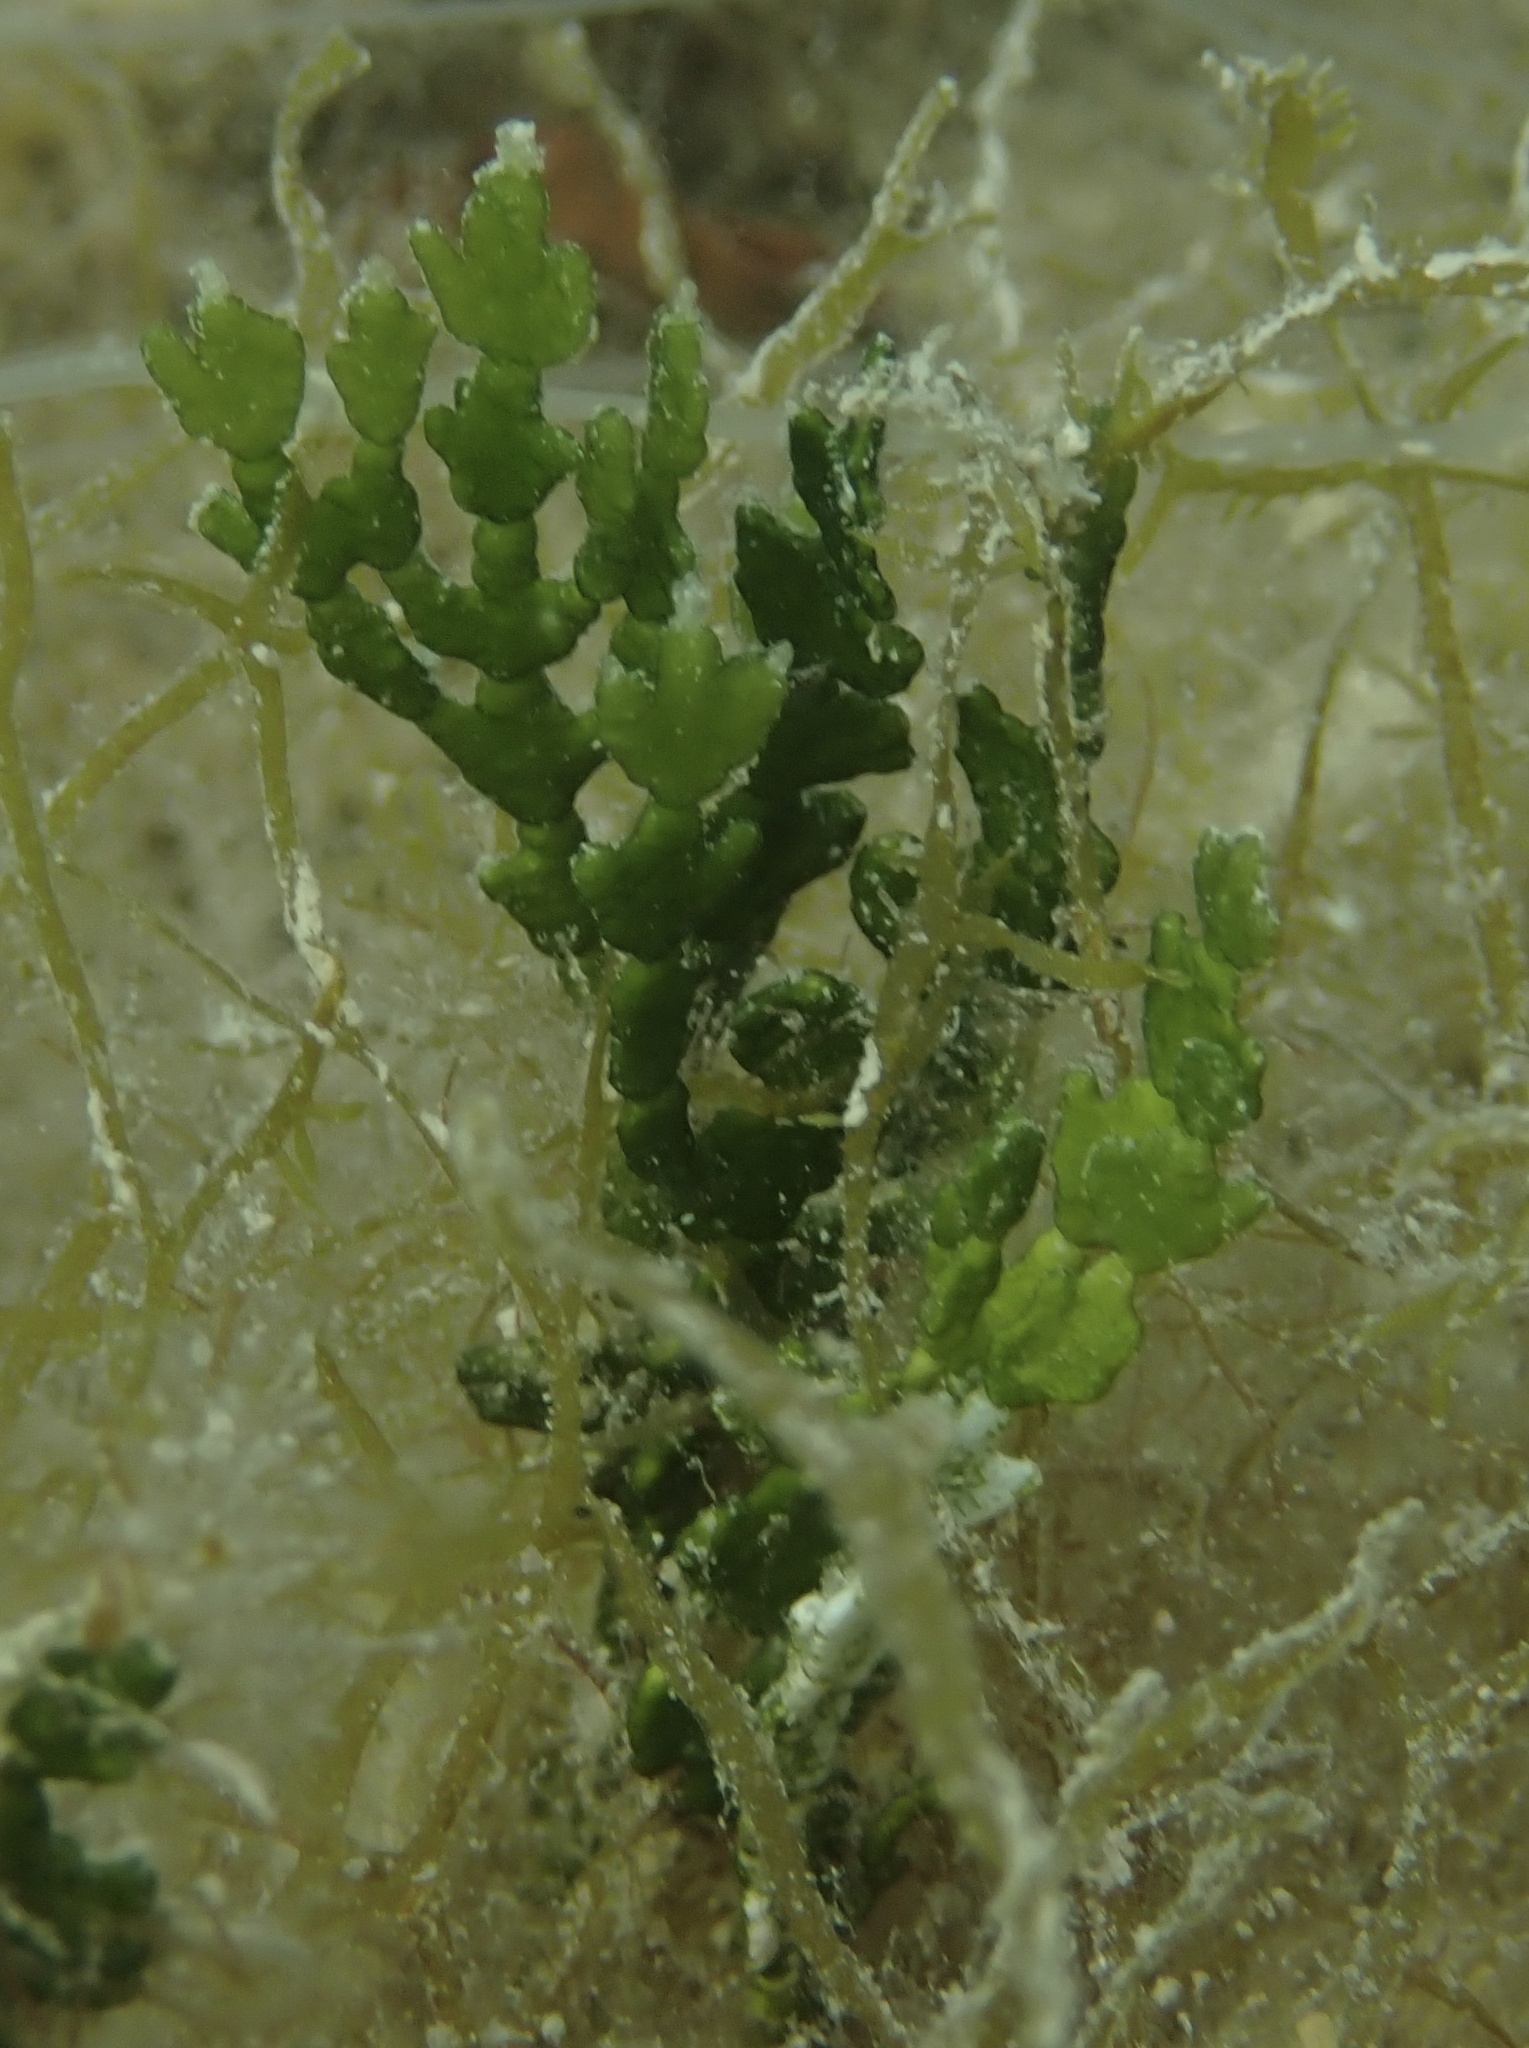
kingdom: Plantae
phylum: Chlorophyta
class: Ulvophyceae
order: Bryopsidales
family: Halimedaceae
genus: Halimeda
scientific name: Halimeda incrassata
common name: Three finger leaf algae
